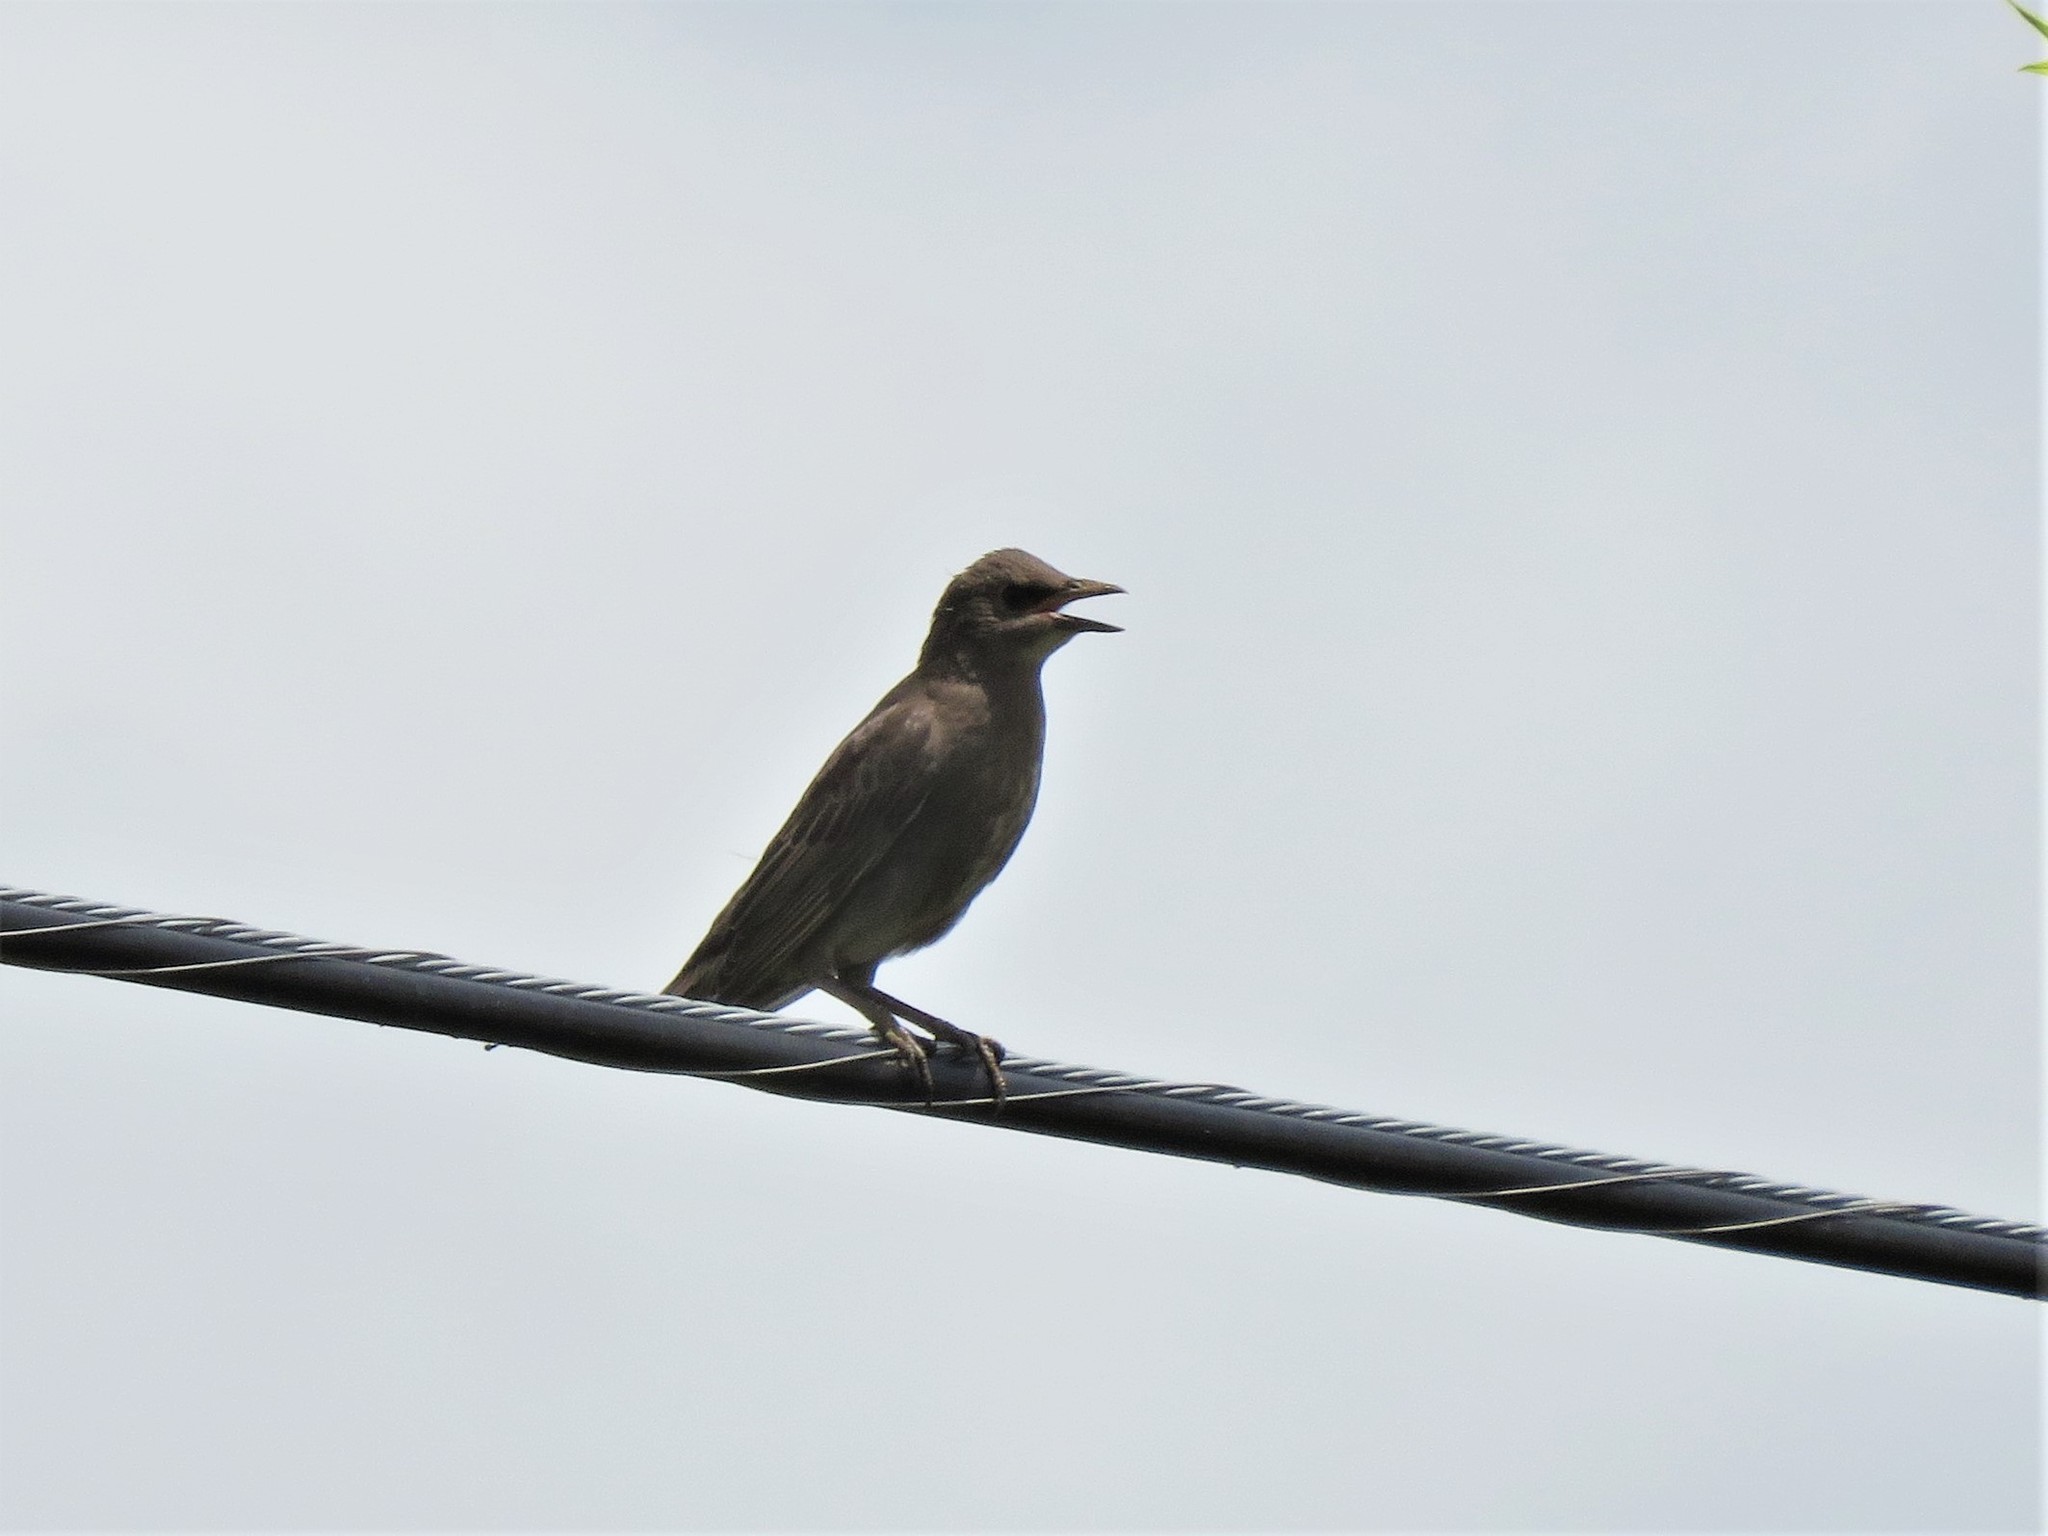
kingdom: Animalia
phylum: Chordata
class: Aves
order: Passeriformes
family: Sturnidae
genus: Sturnus
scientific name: Sturnus vulgaris
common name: Common starling
